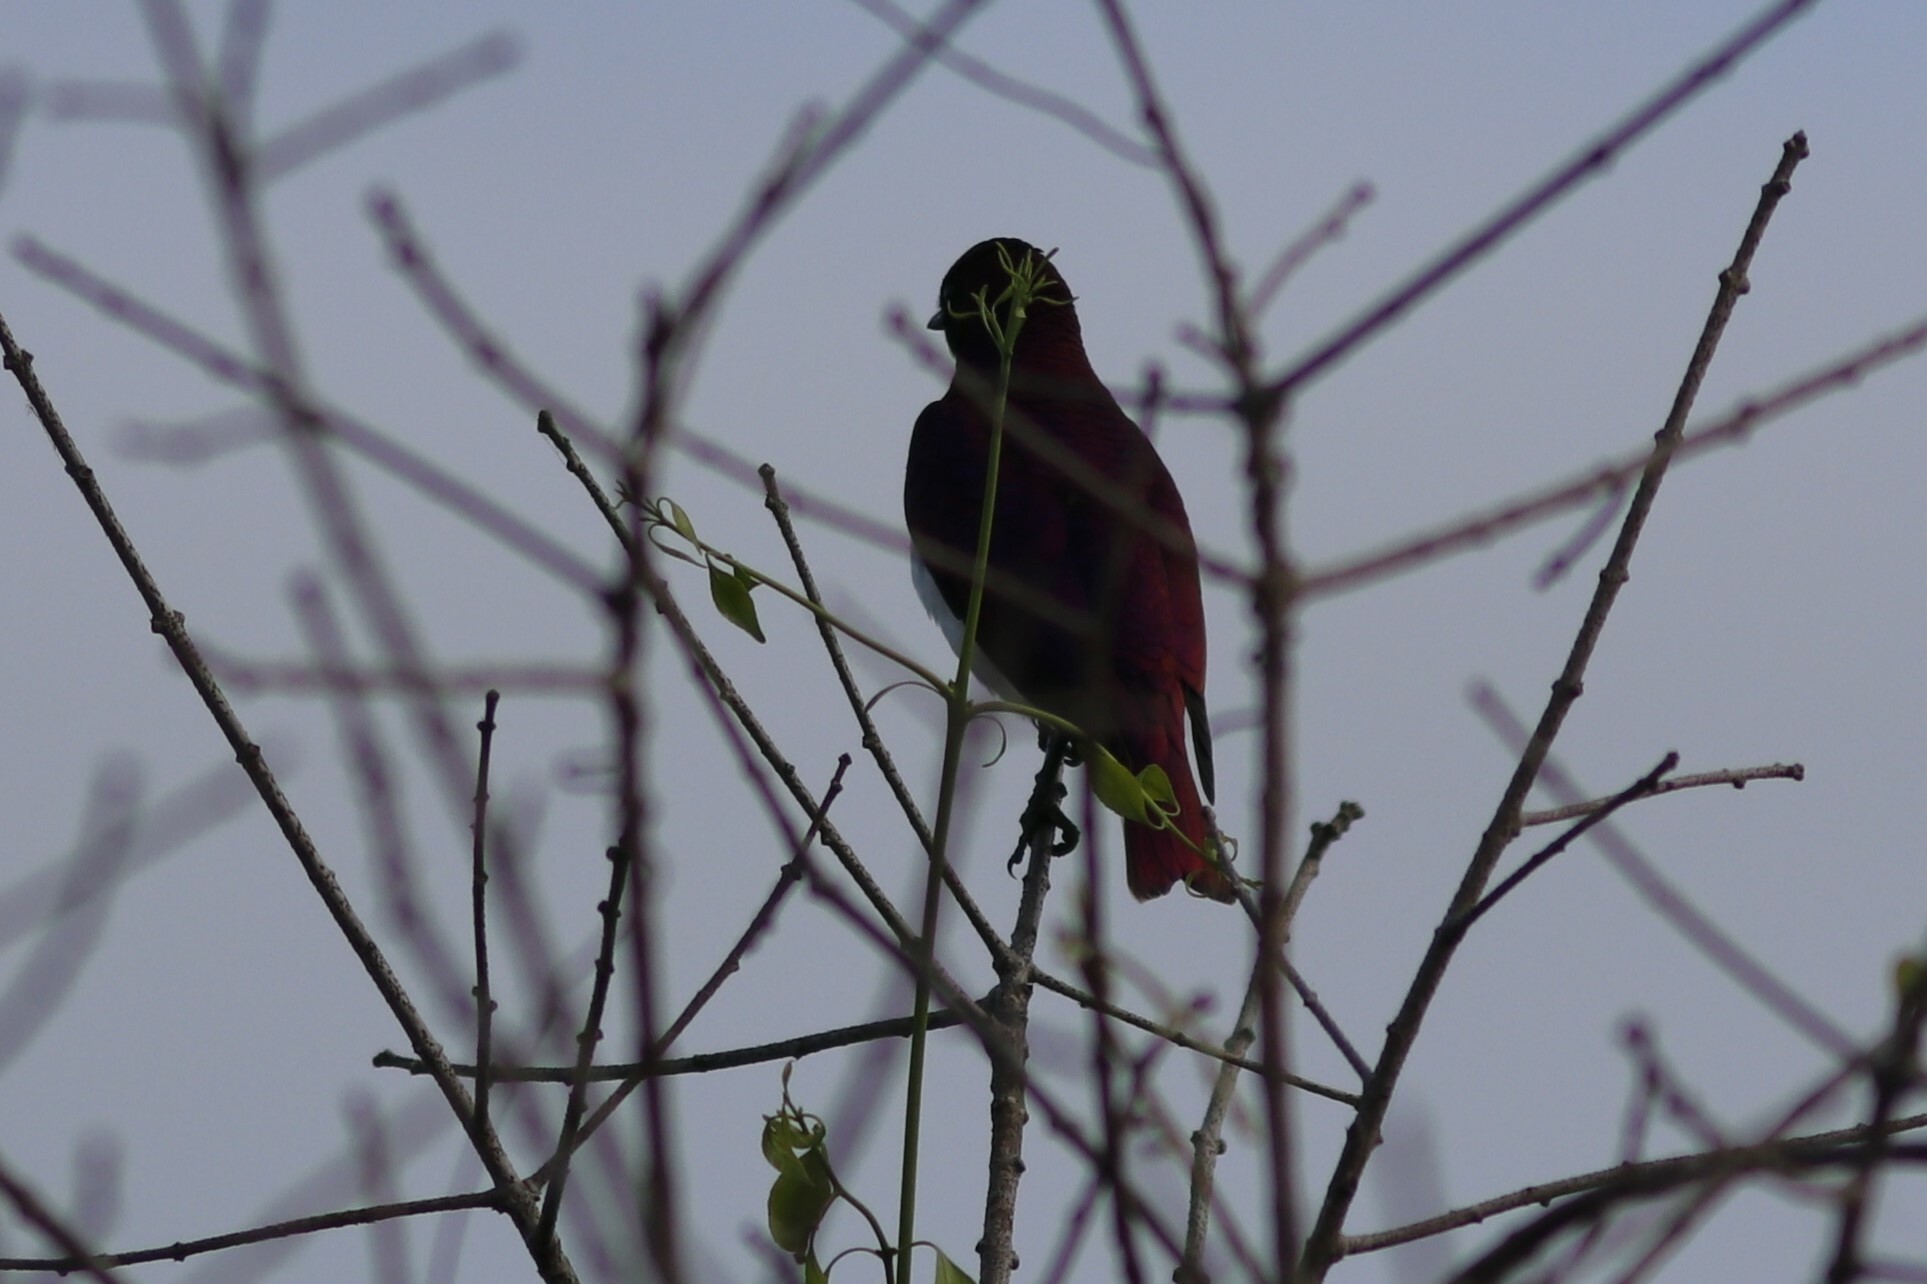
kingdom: Animalia
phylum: Chordata
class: Aves
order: Passeriformes
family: Sturnidae
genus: Cinnyricinclus
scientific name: Cinnyricinclus leucogaster
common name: Violet-backed starling
